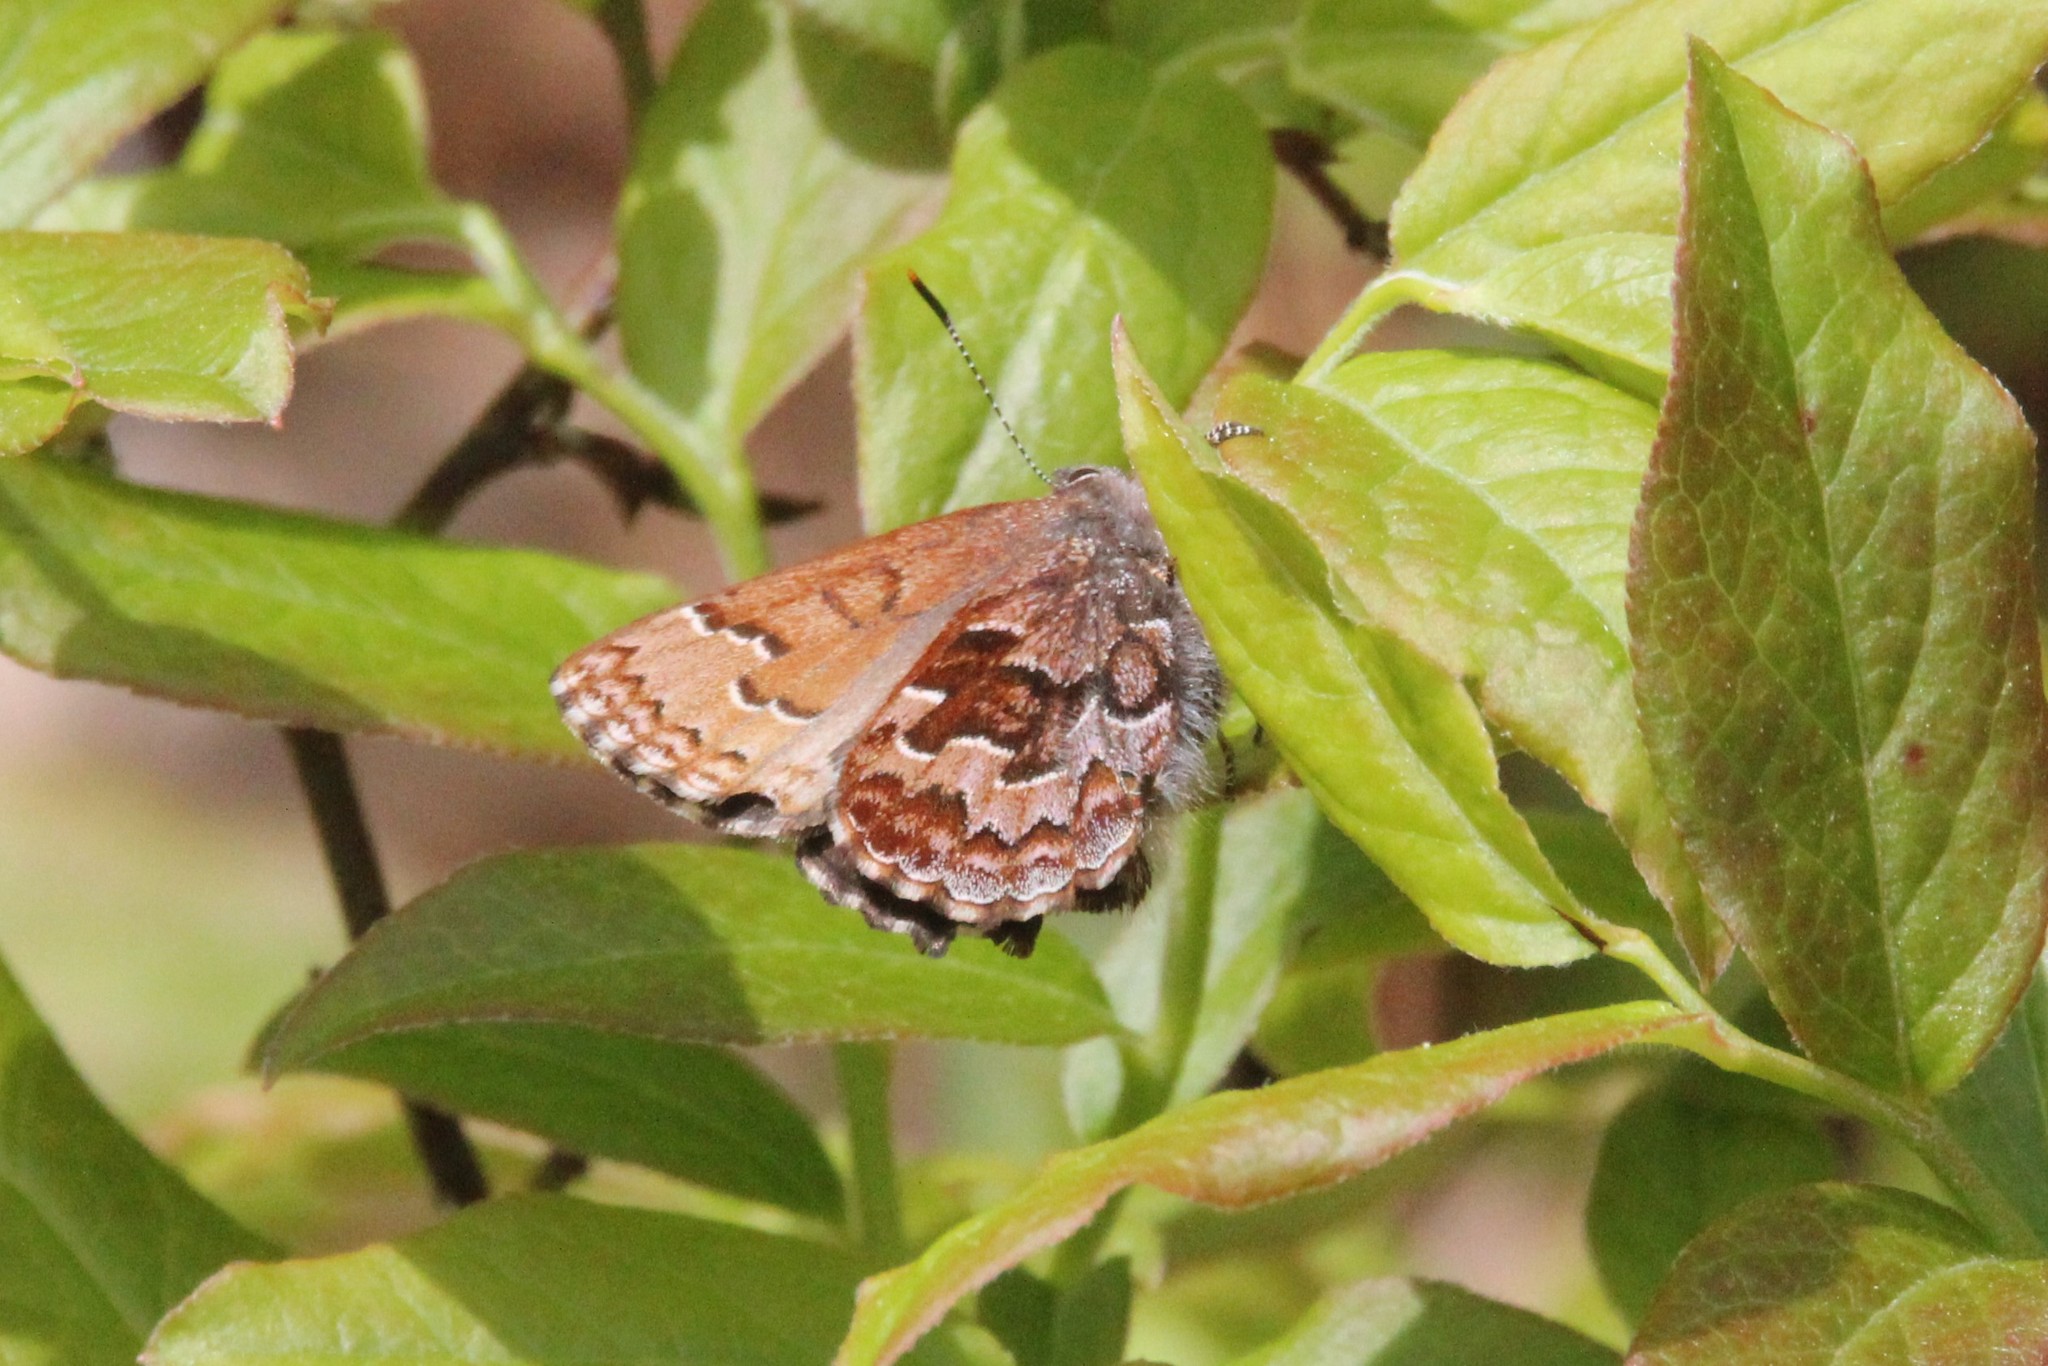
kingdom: Animalia
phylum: Arthropoda
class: Insecta
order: Lepidoptera
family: Lycaenidae
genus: Incisalia
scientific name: Incisalia niphon
